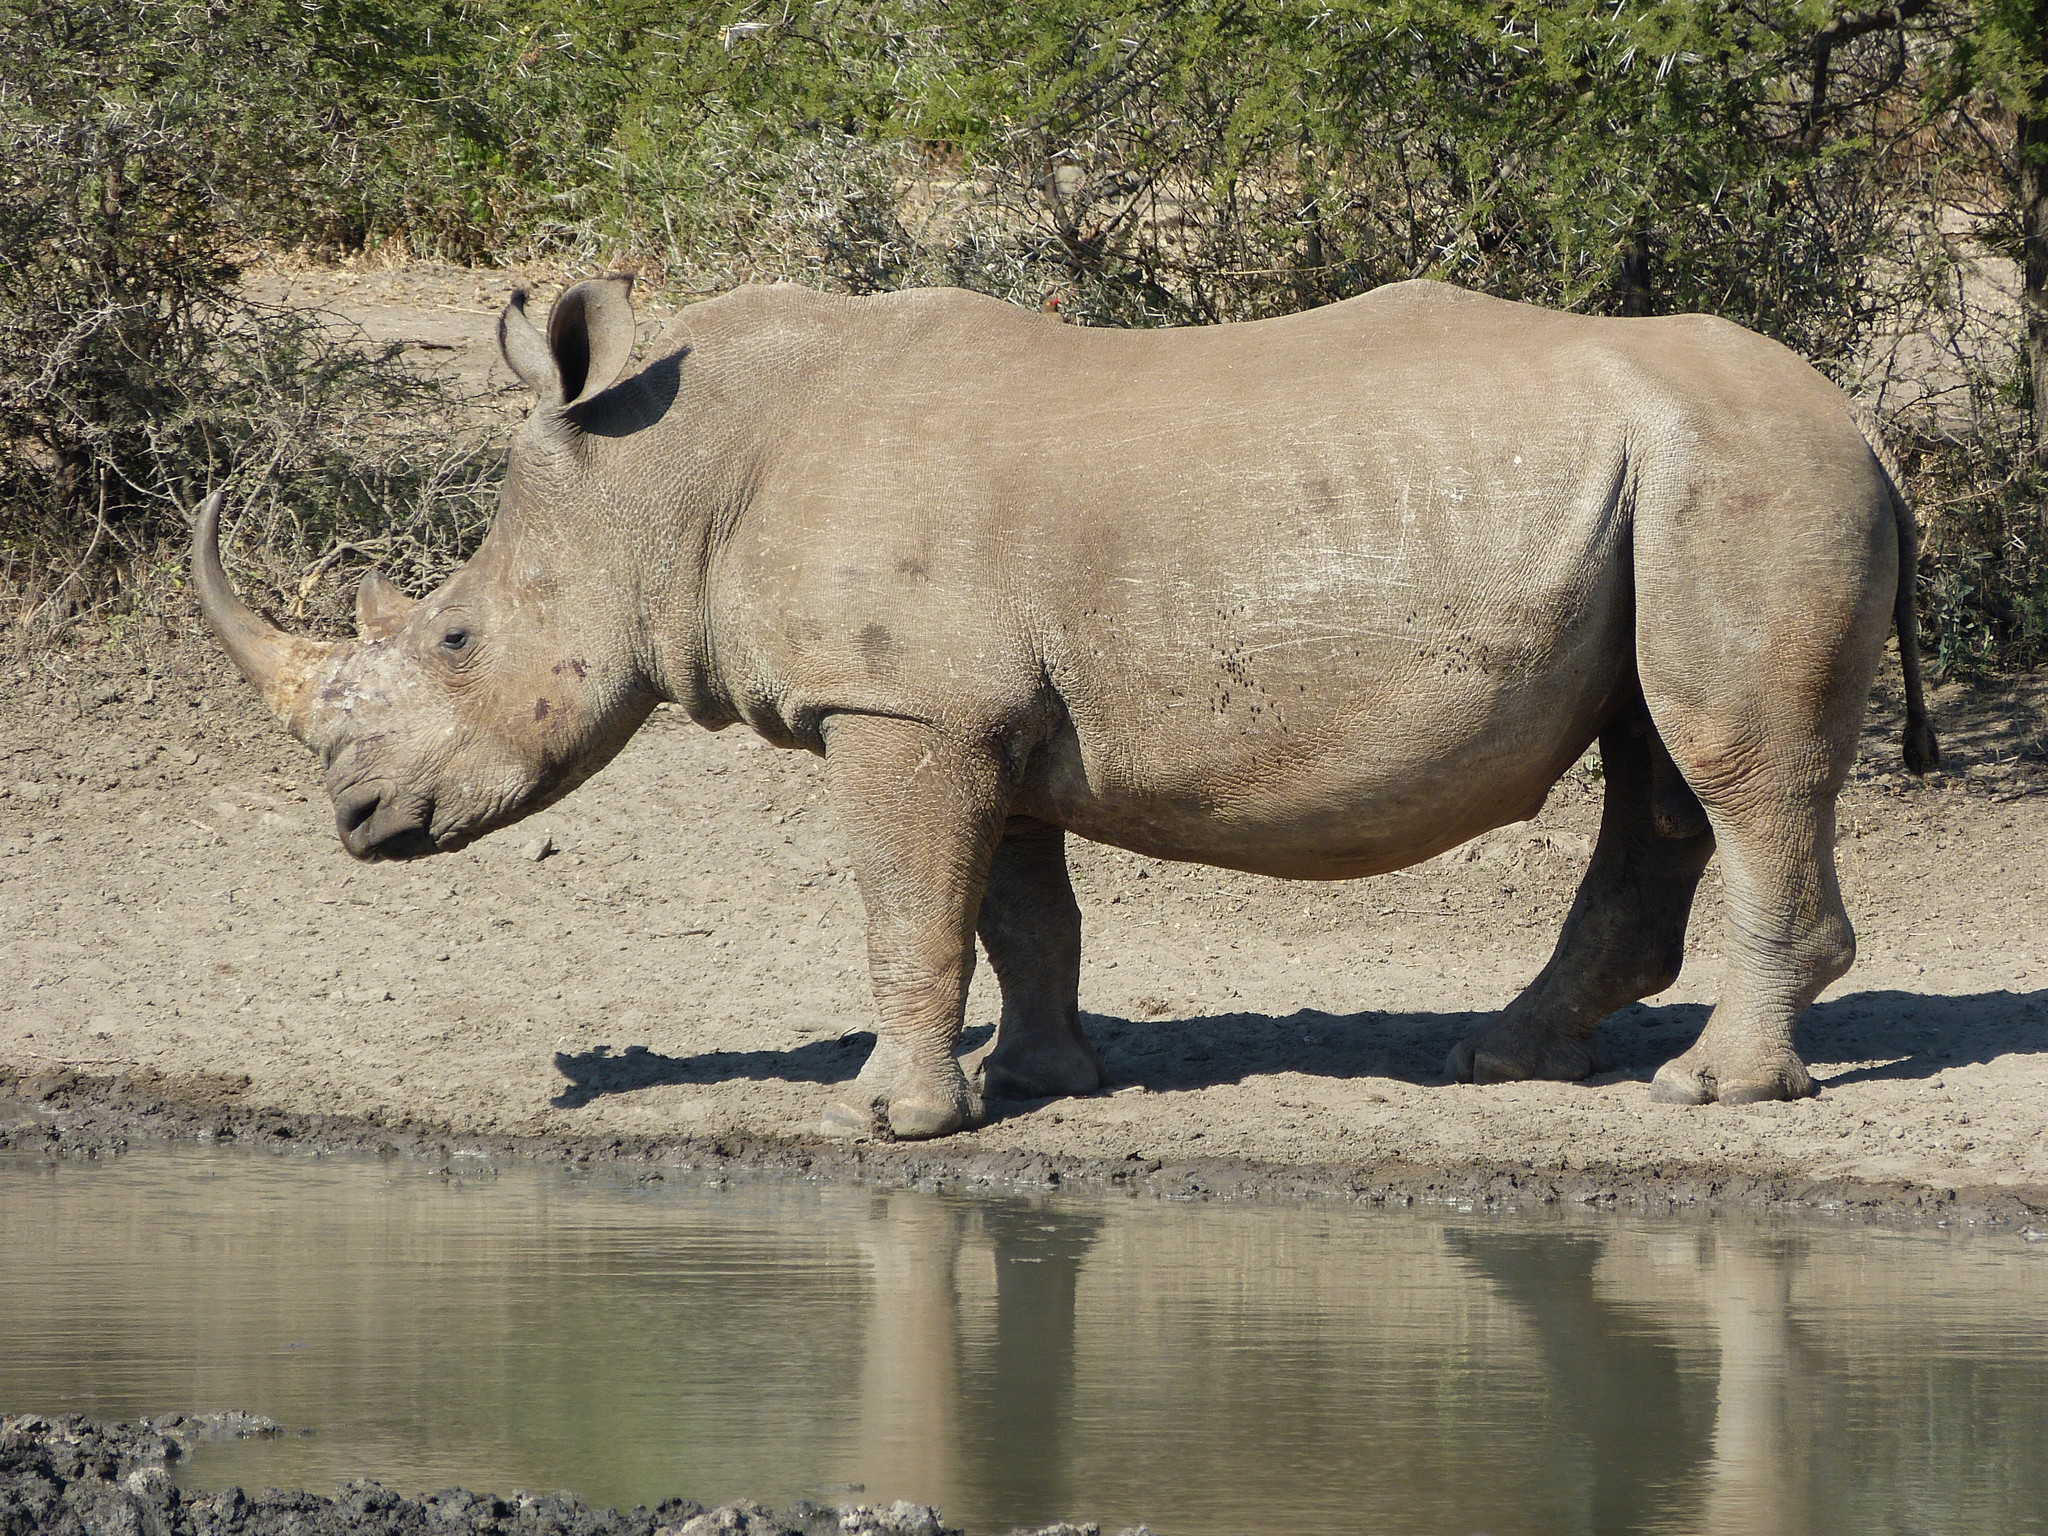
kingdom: Animalia
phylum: Chordata
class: Mammalia
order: Perissodactyla
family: Rhinocerotidae
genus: Ceratotherium
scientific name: Ceratotherium simum
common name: White rhinoceros
